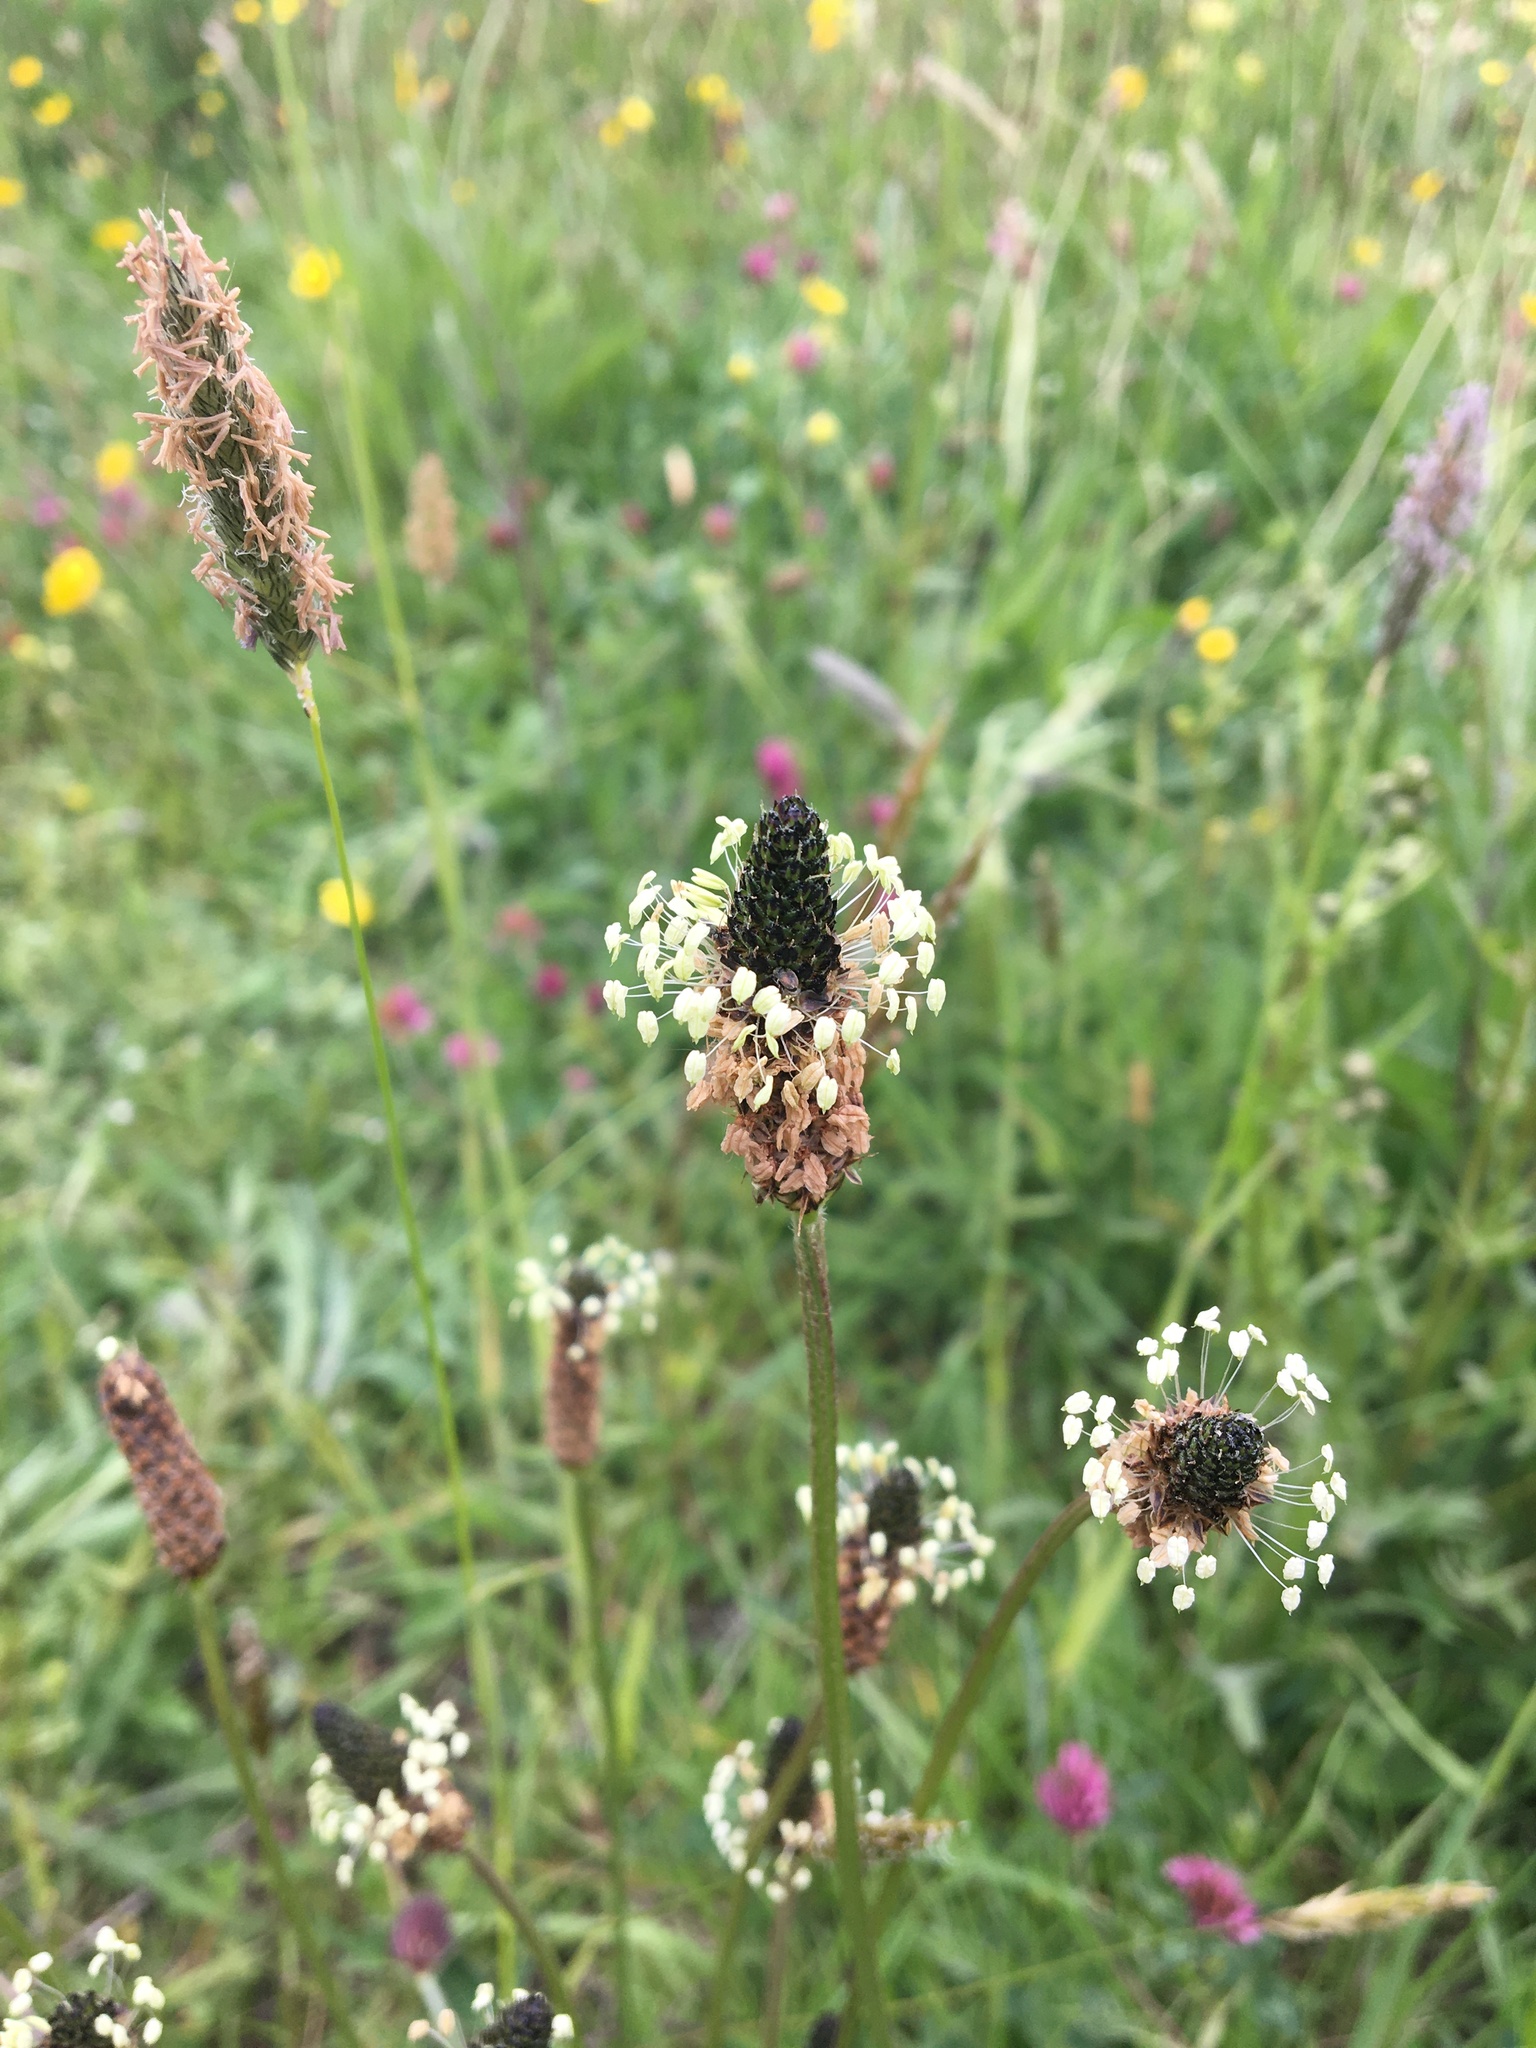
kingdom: Plantae
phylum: Tracheophyta
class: Magnoliopsida
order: Lamiales
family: Plantaginaceae
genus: Plantago
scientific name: Plantago lanceolata
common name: Ribwort plantain
